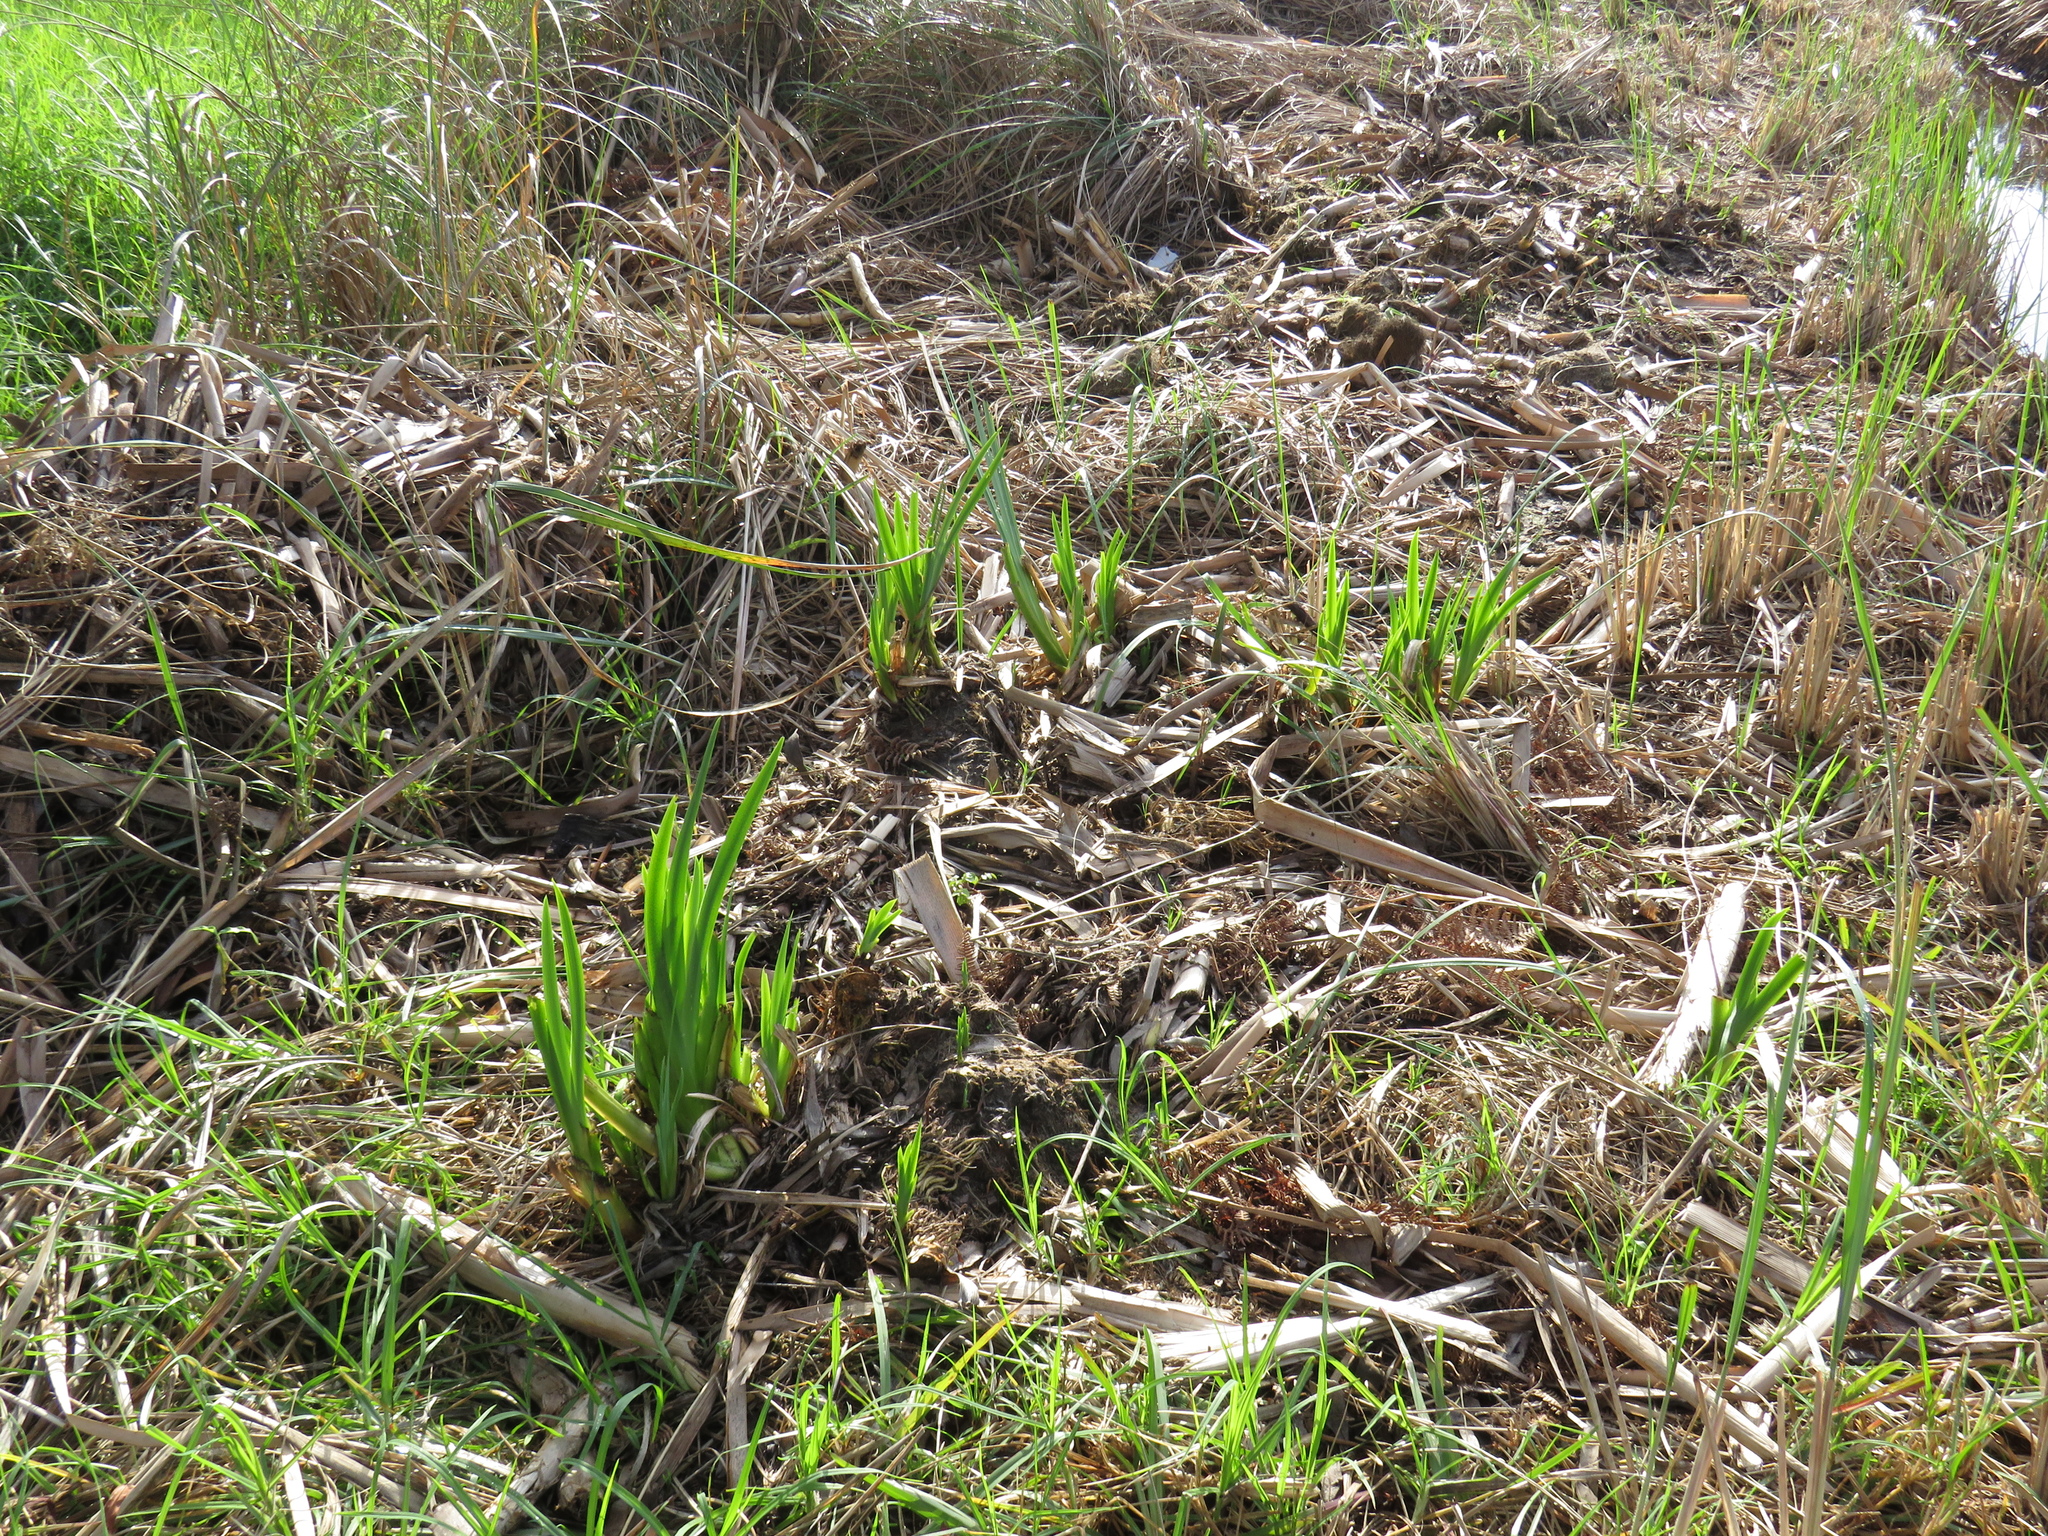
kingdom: Plantae
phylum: Tracheophyta
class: Liliopsida
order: Asparagales
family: Iridaceae
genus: Iris
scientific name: Iris pseudacorus
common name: Yellow flag
